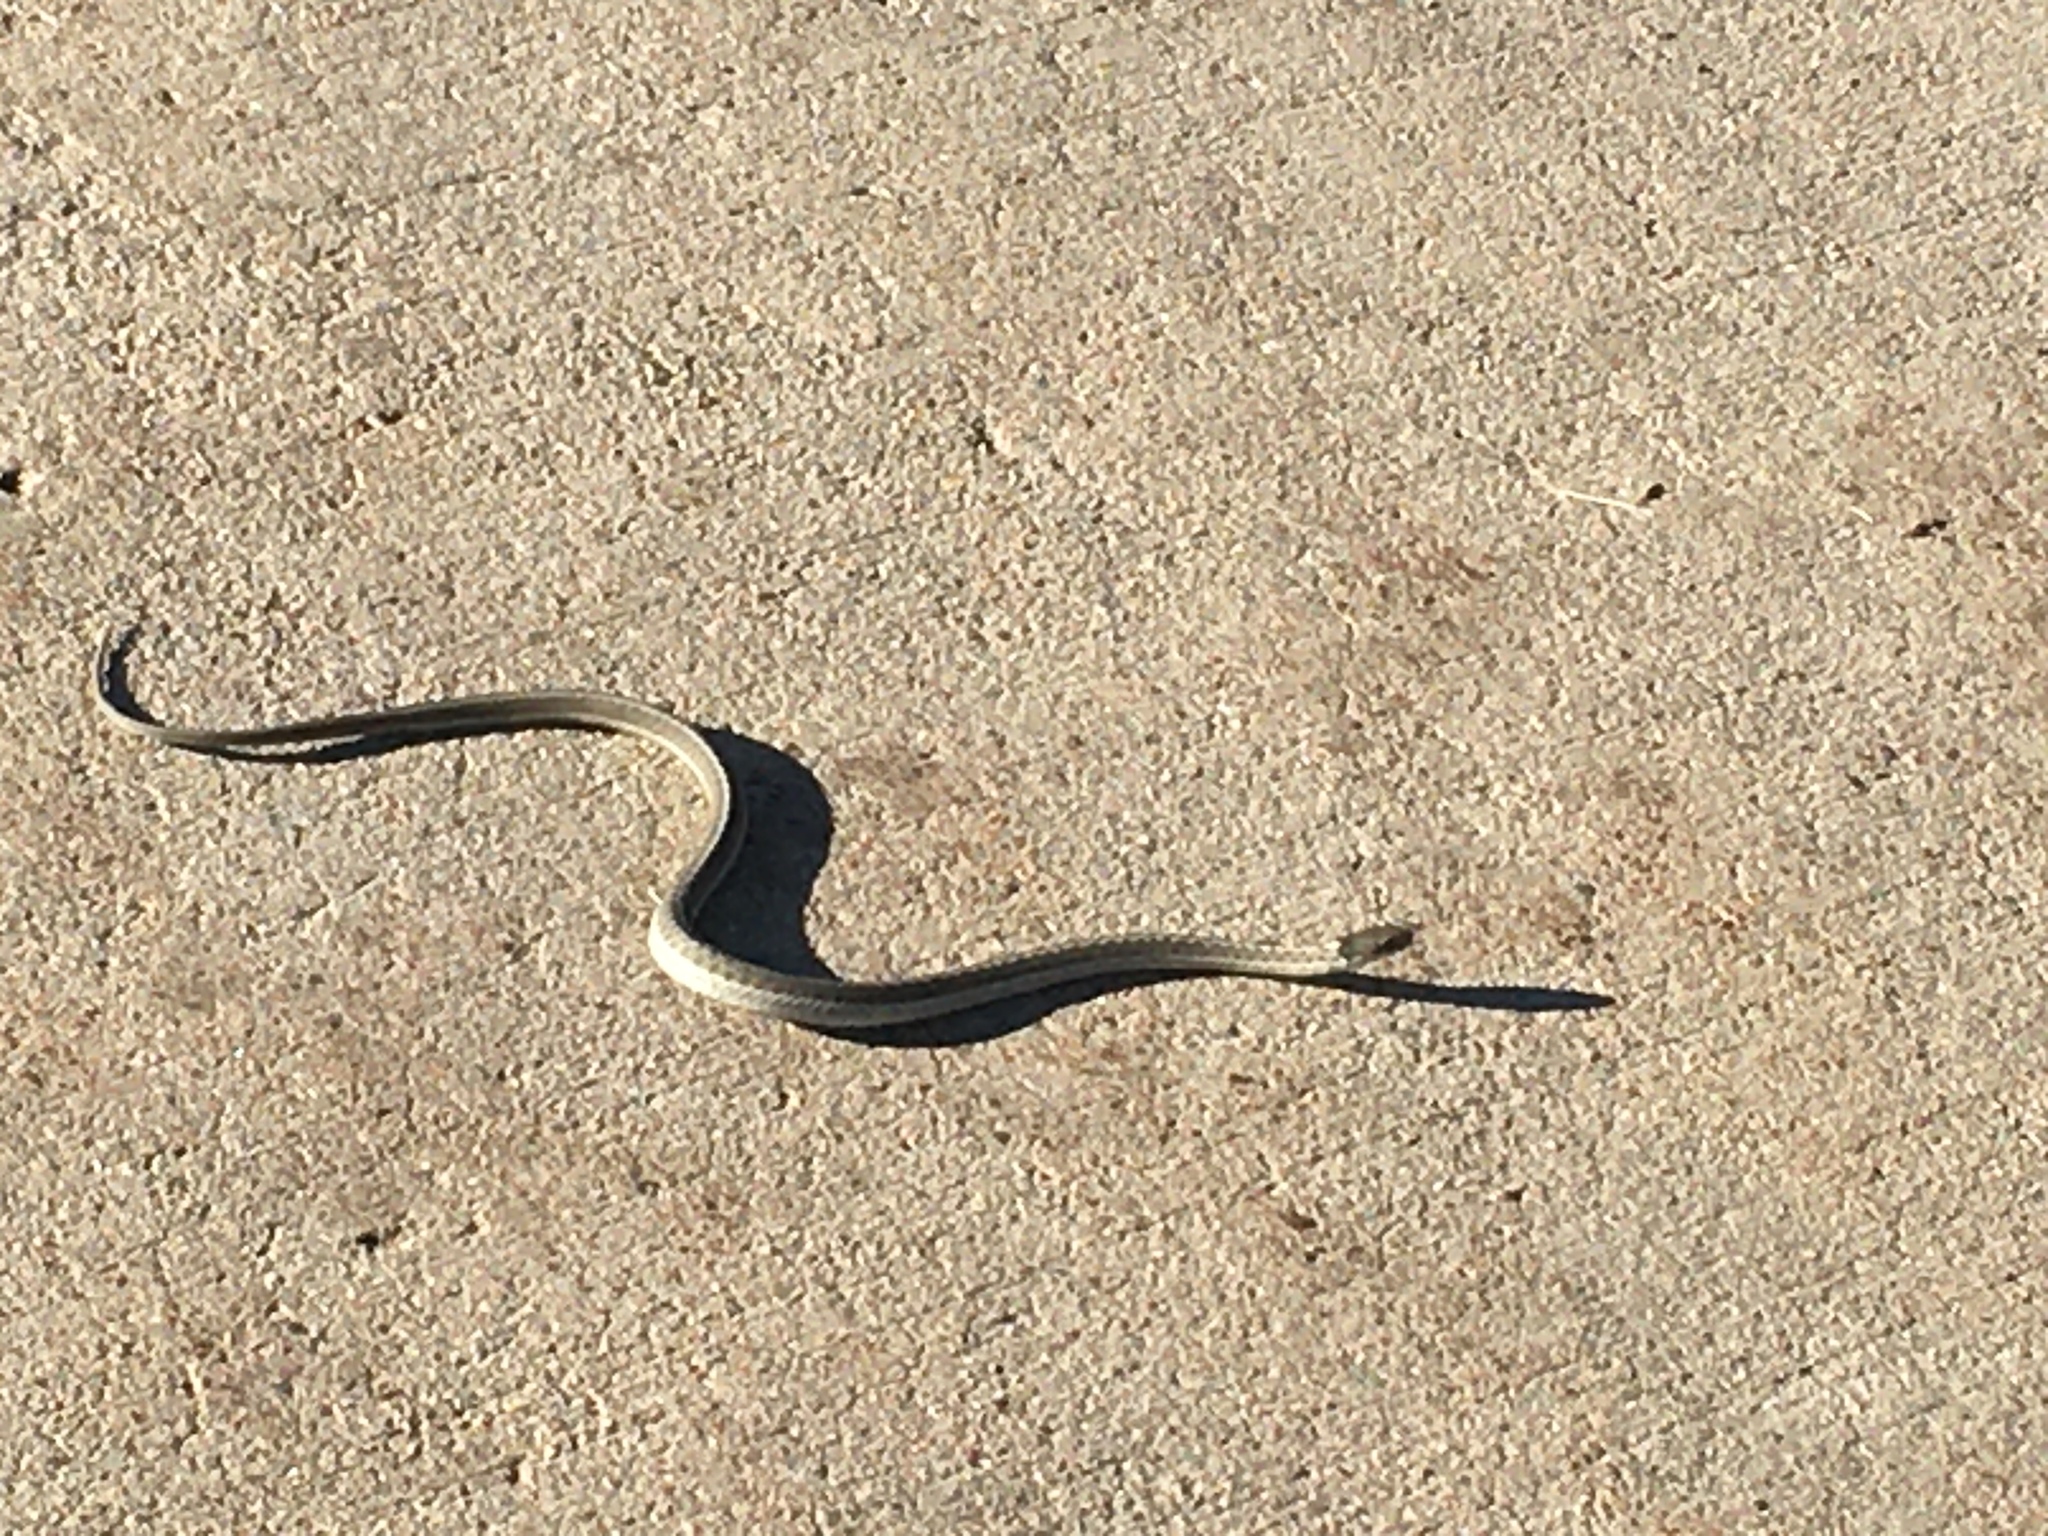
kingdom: Animalia
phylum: Chordata
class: Squamata
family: Colubridae
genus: Thamnophis
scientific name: Thamnophis elegans
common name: Western terrestrial garter snake
